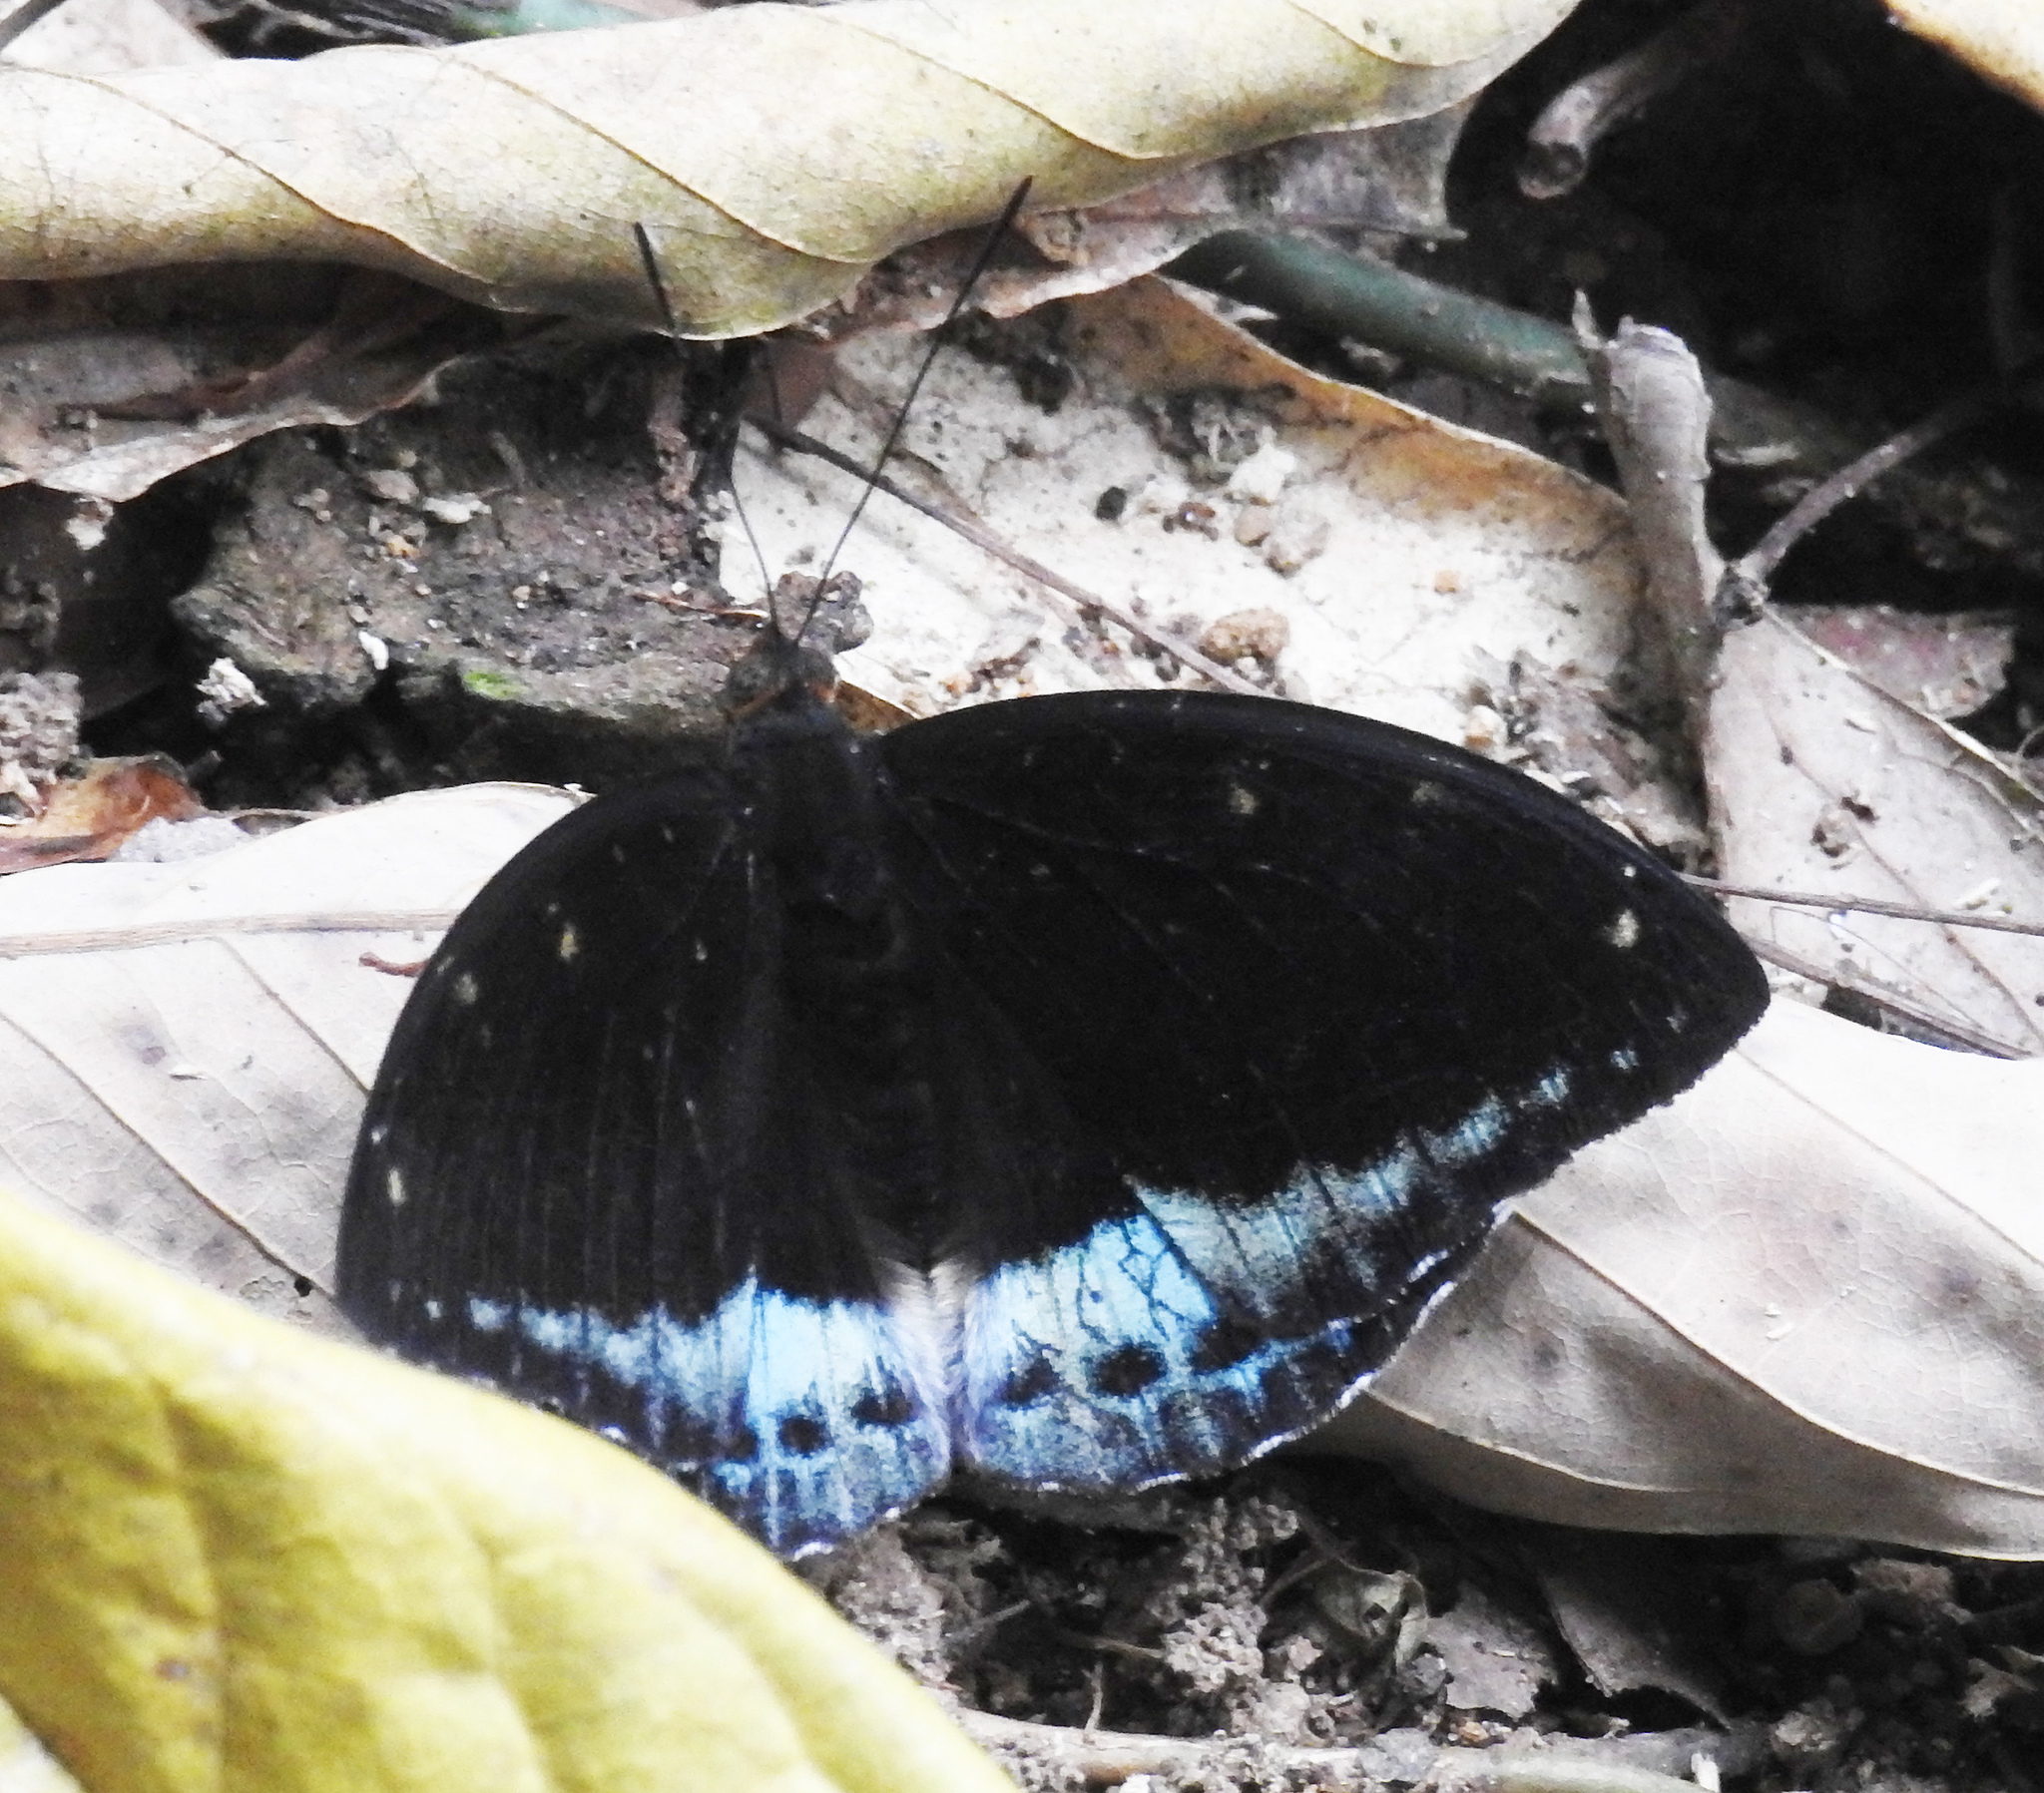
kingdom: Animalia
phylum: Arthropoda
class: Insecta
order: Lepidoptera
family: Nymphalidae
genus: Lexias
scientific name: Lexias dirtea
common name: Black-tipped archduke
